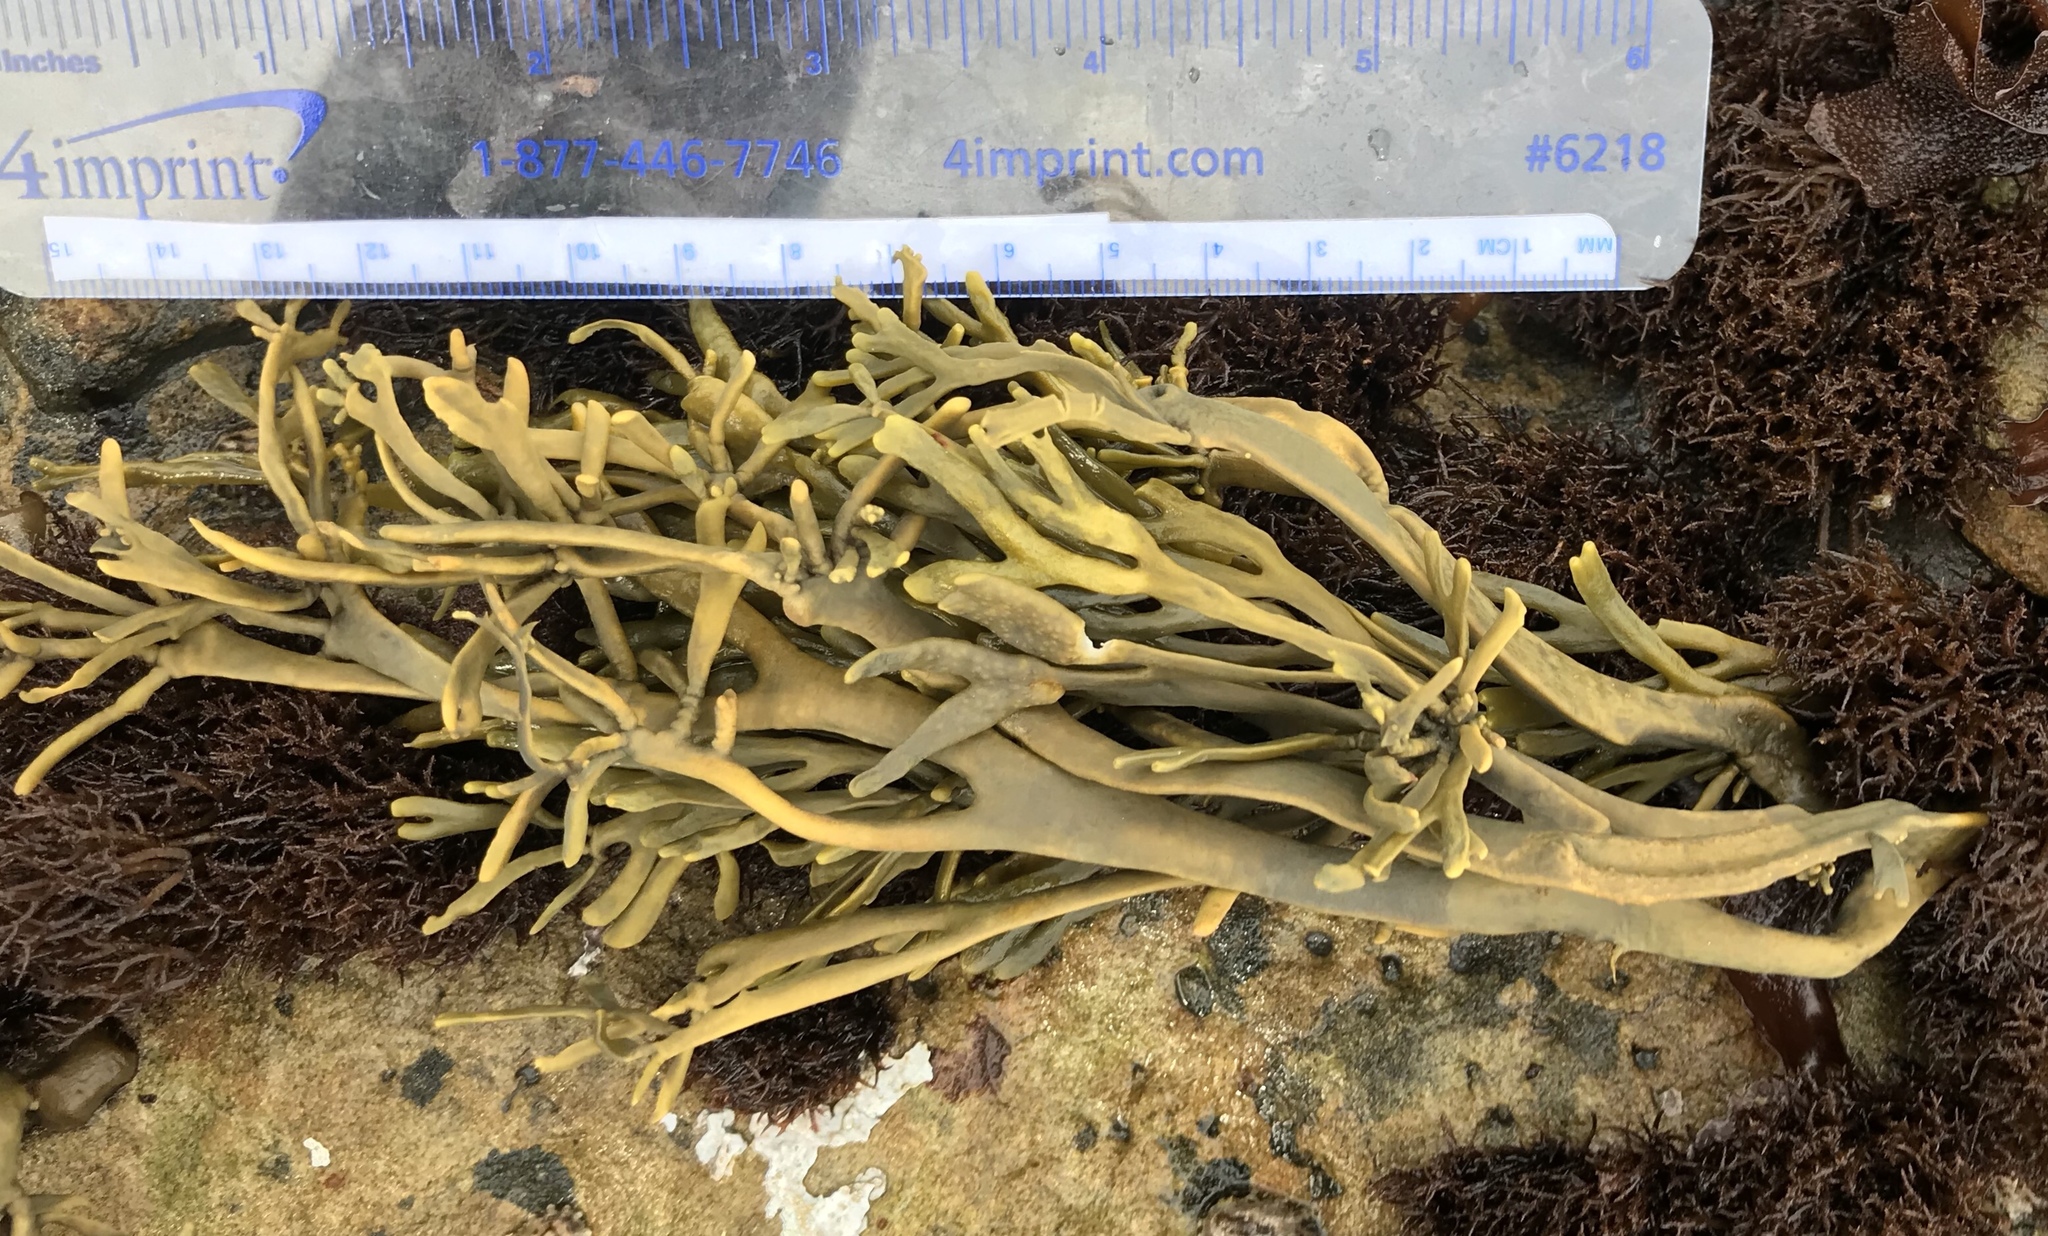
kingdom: Chromista
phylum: Ochrophyta
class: Phaeophyceae
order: Fucales
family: Fucaceae
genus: Silvetia
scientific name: Silvetia
